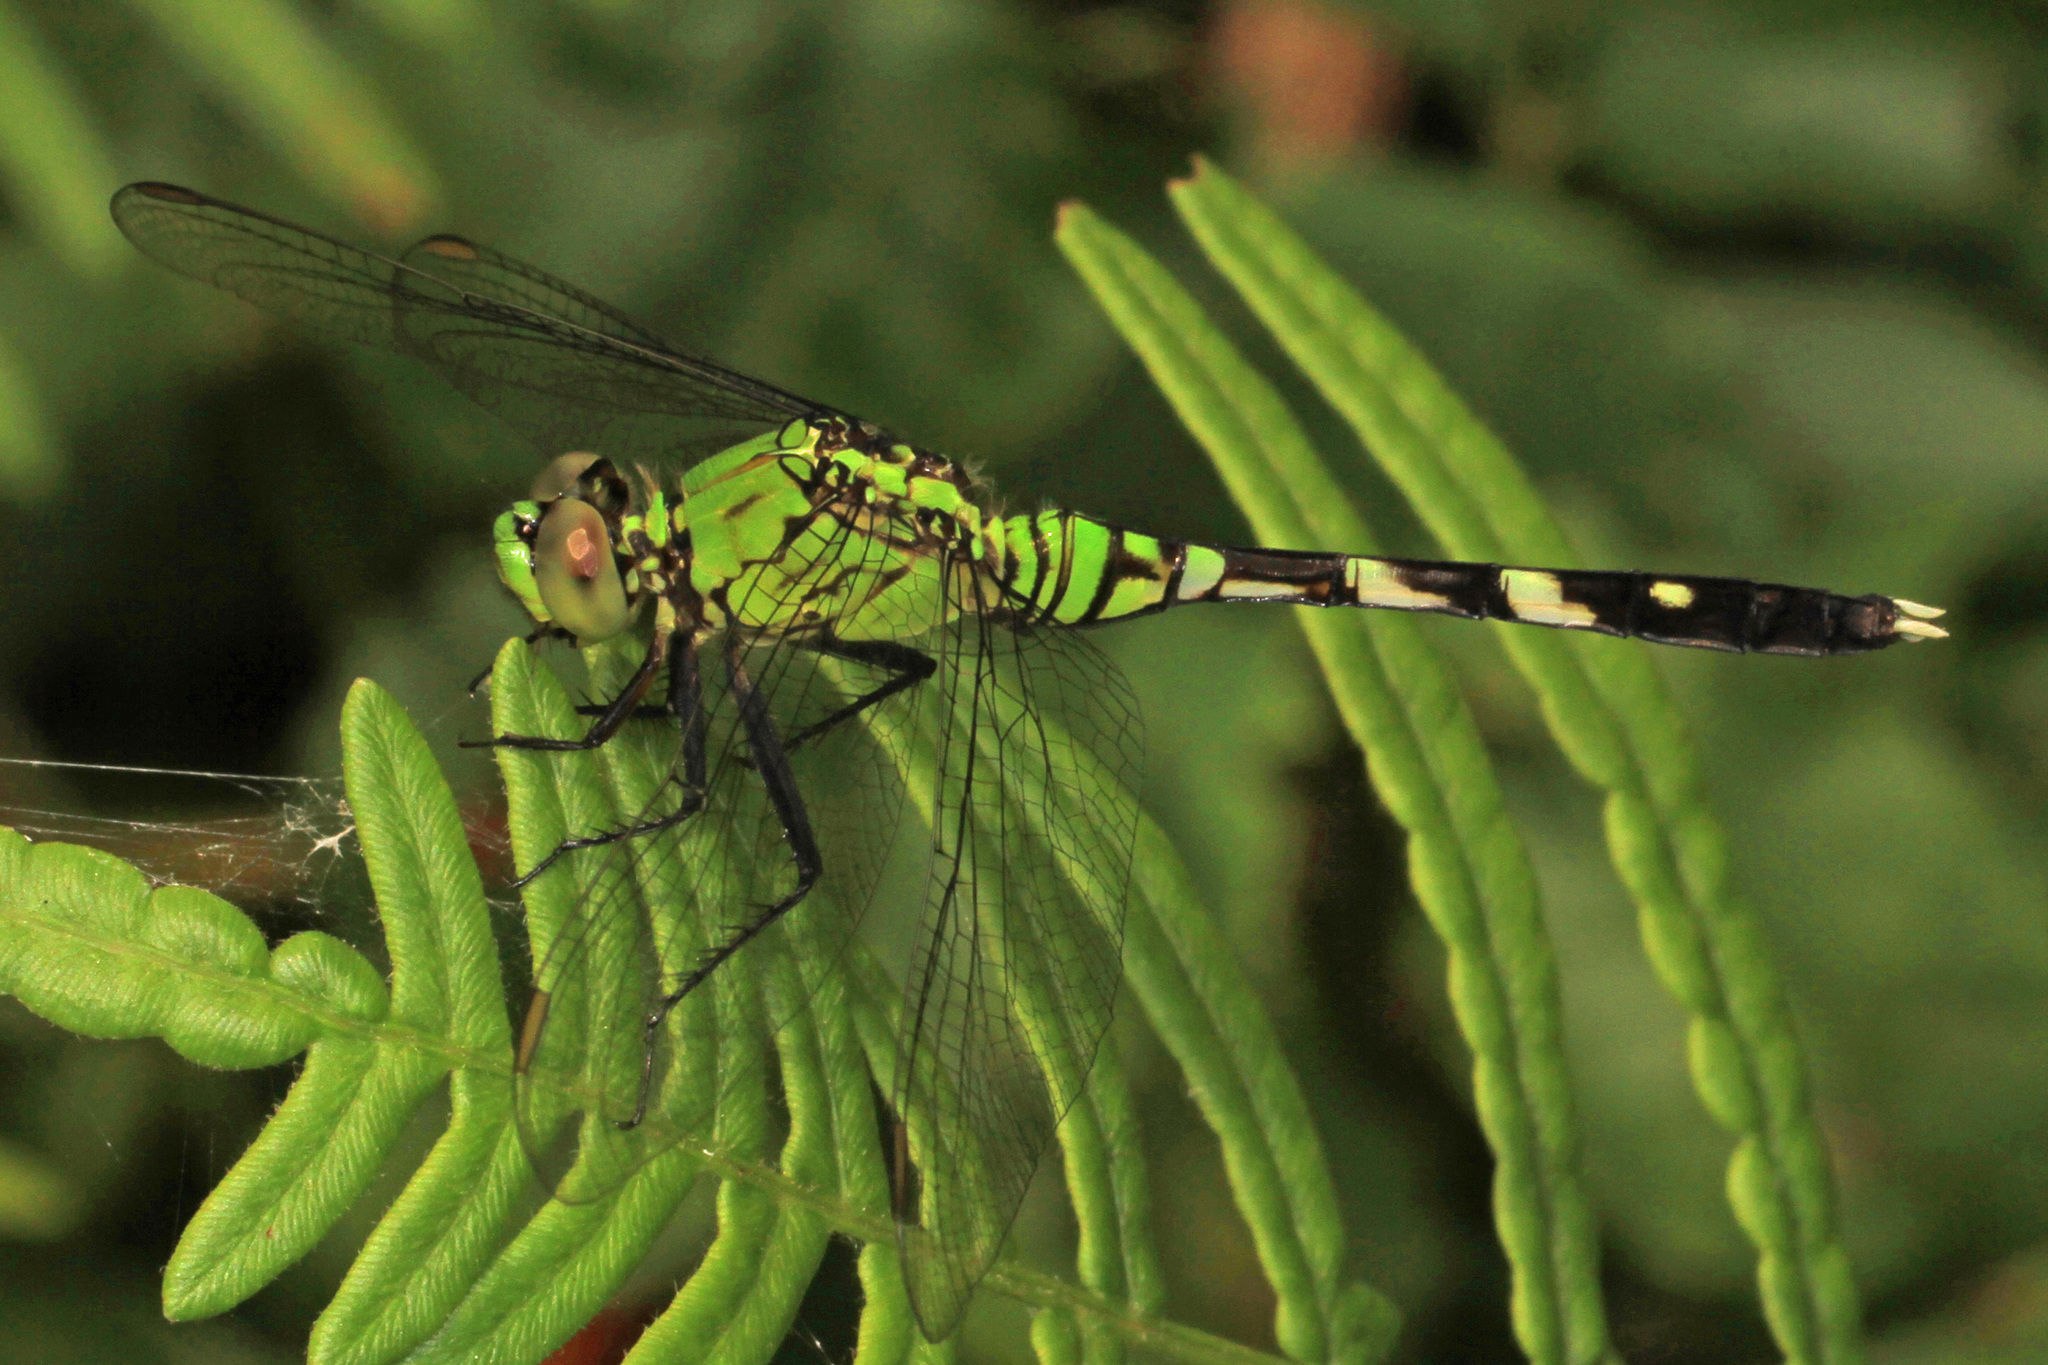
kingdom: Animalia
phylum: Arthropoda
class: Insecta
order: Odonata
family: Libellulidae
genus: Erythemis
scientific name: Erythemis simplicicollis
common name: Eastern pondhawk
